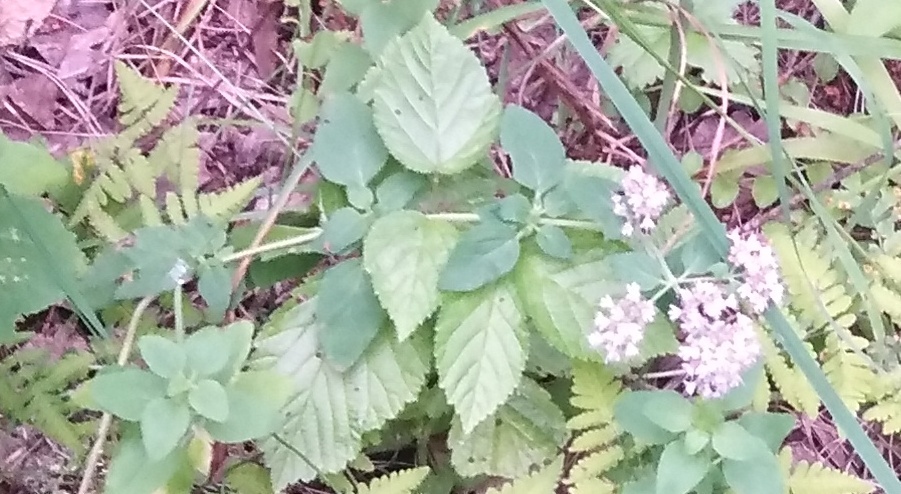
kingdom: Plantae
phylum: Tracheophyta
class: Magnoliopsida
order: Lamiales
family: Lamiaceae
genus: Origanum
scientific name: Origanum vulgare
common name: Wild marjoram
